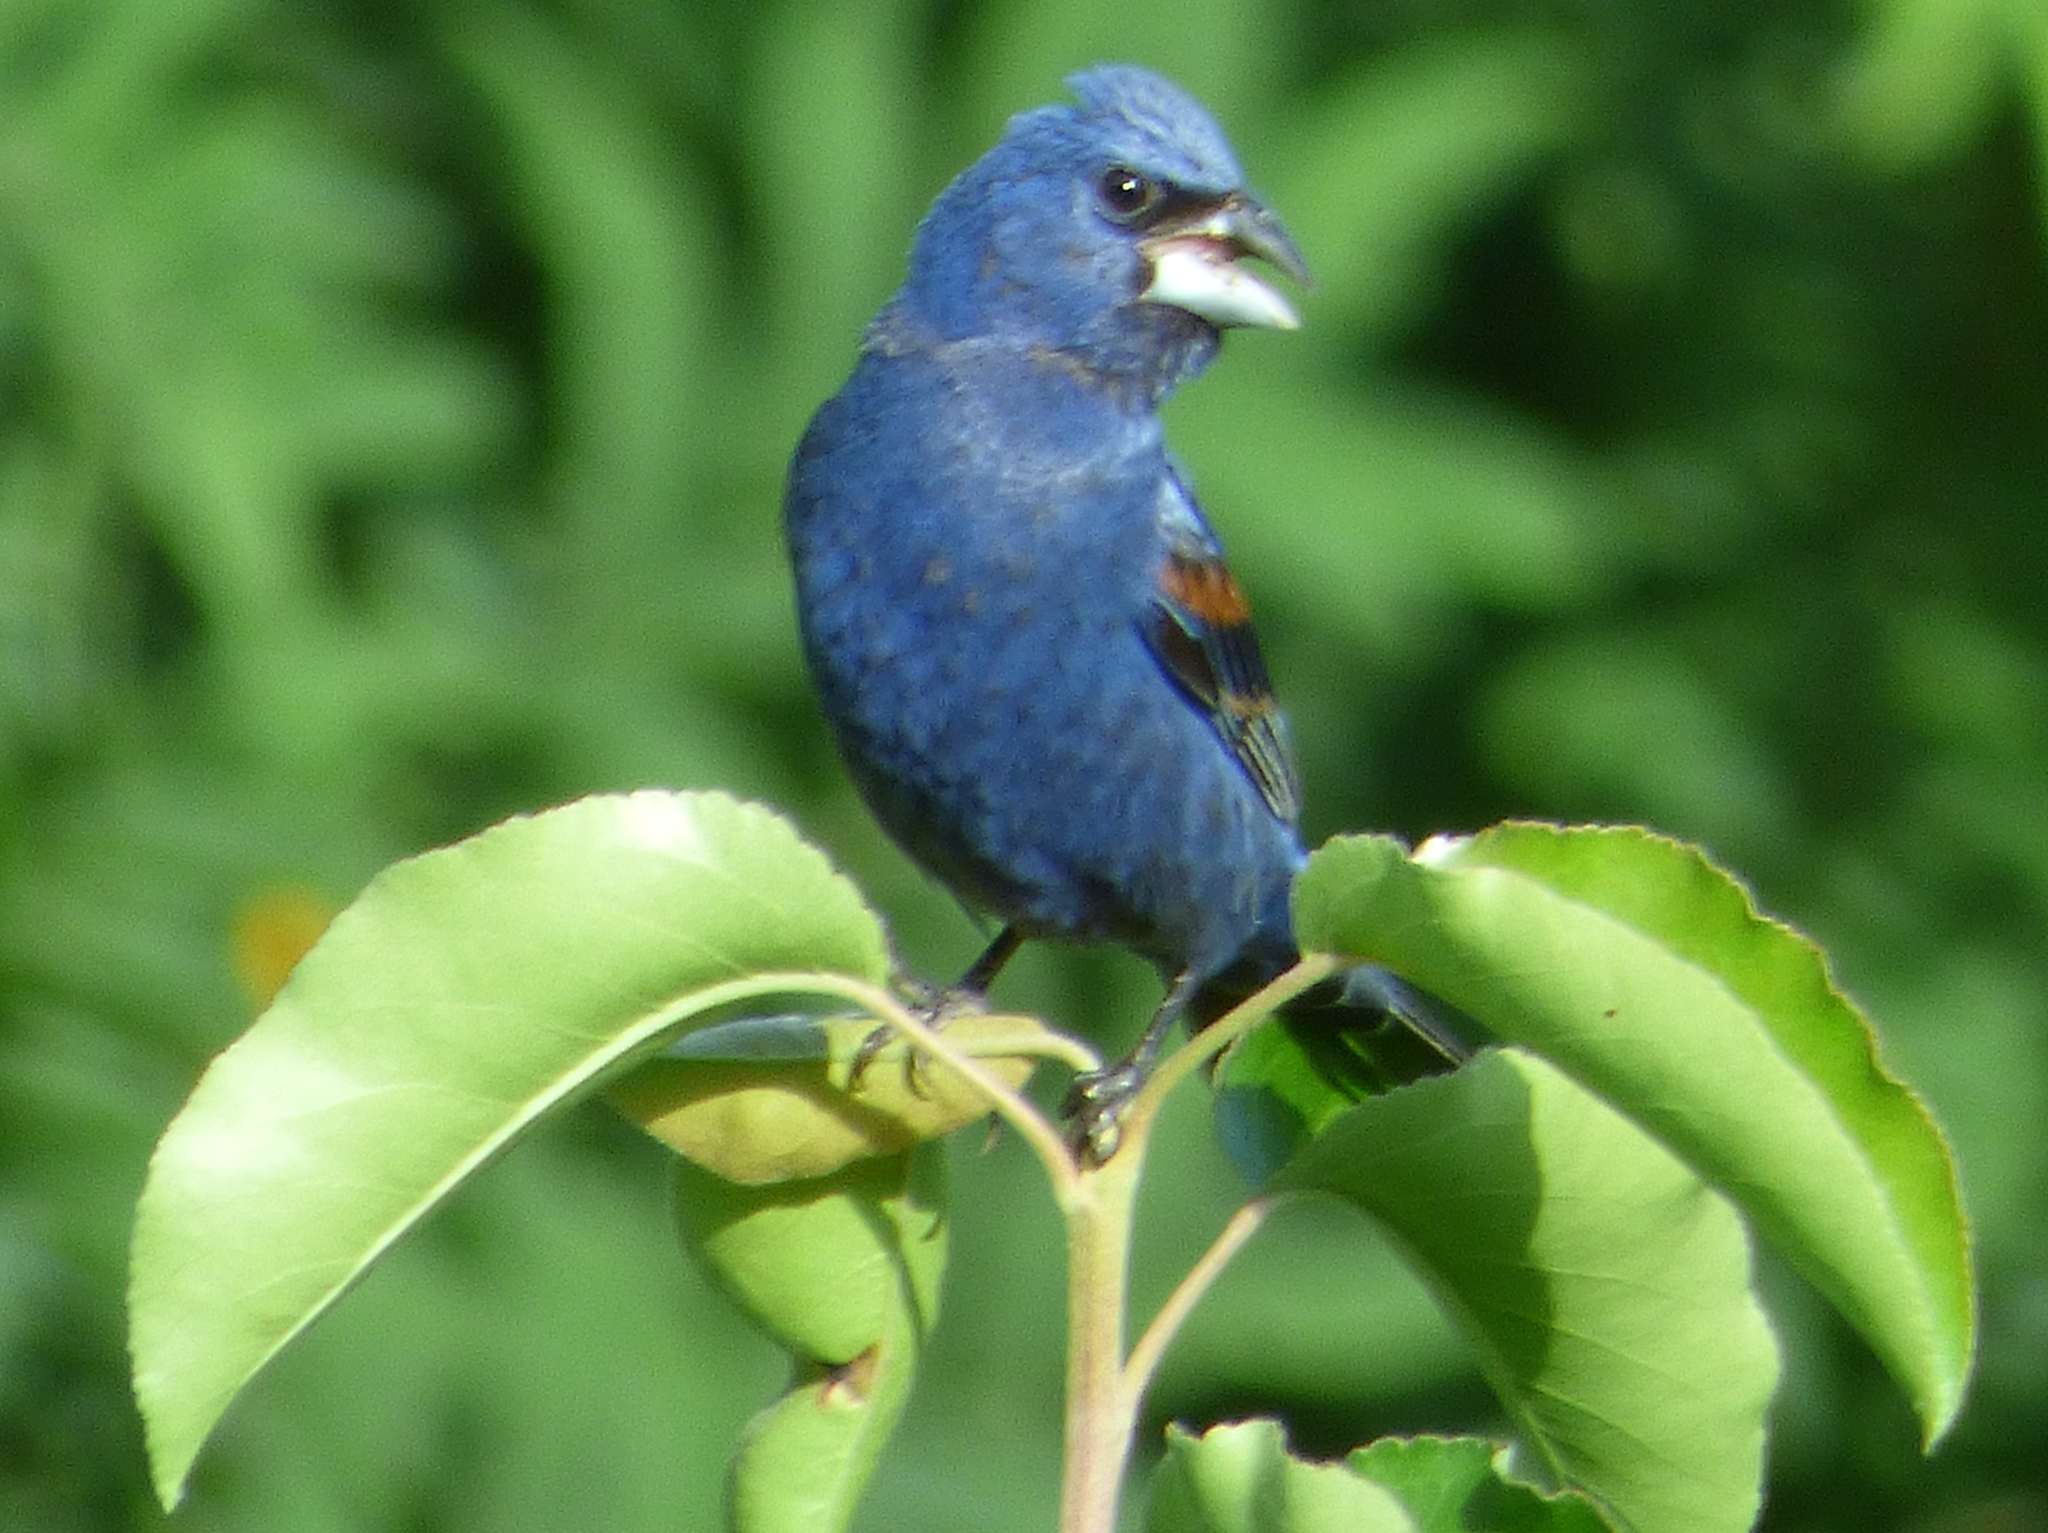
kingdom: Animalia
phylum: Chordata
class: Aves
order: Passeriformes
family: Cardinalidae
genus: Passerina
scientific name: Passerina caerulea
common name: Blue grosbeak
